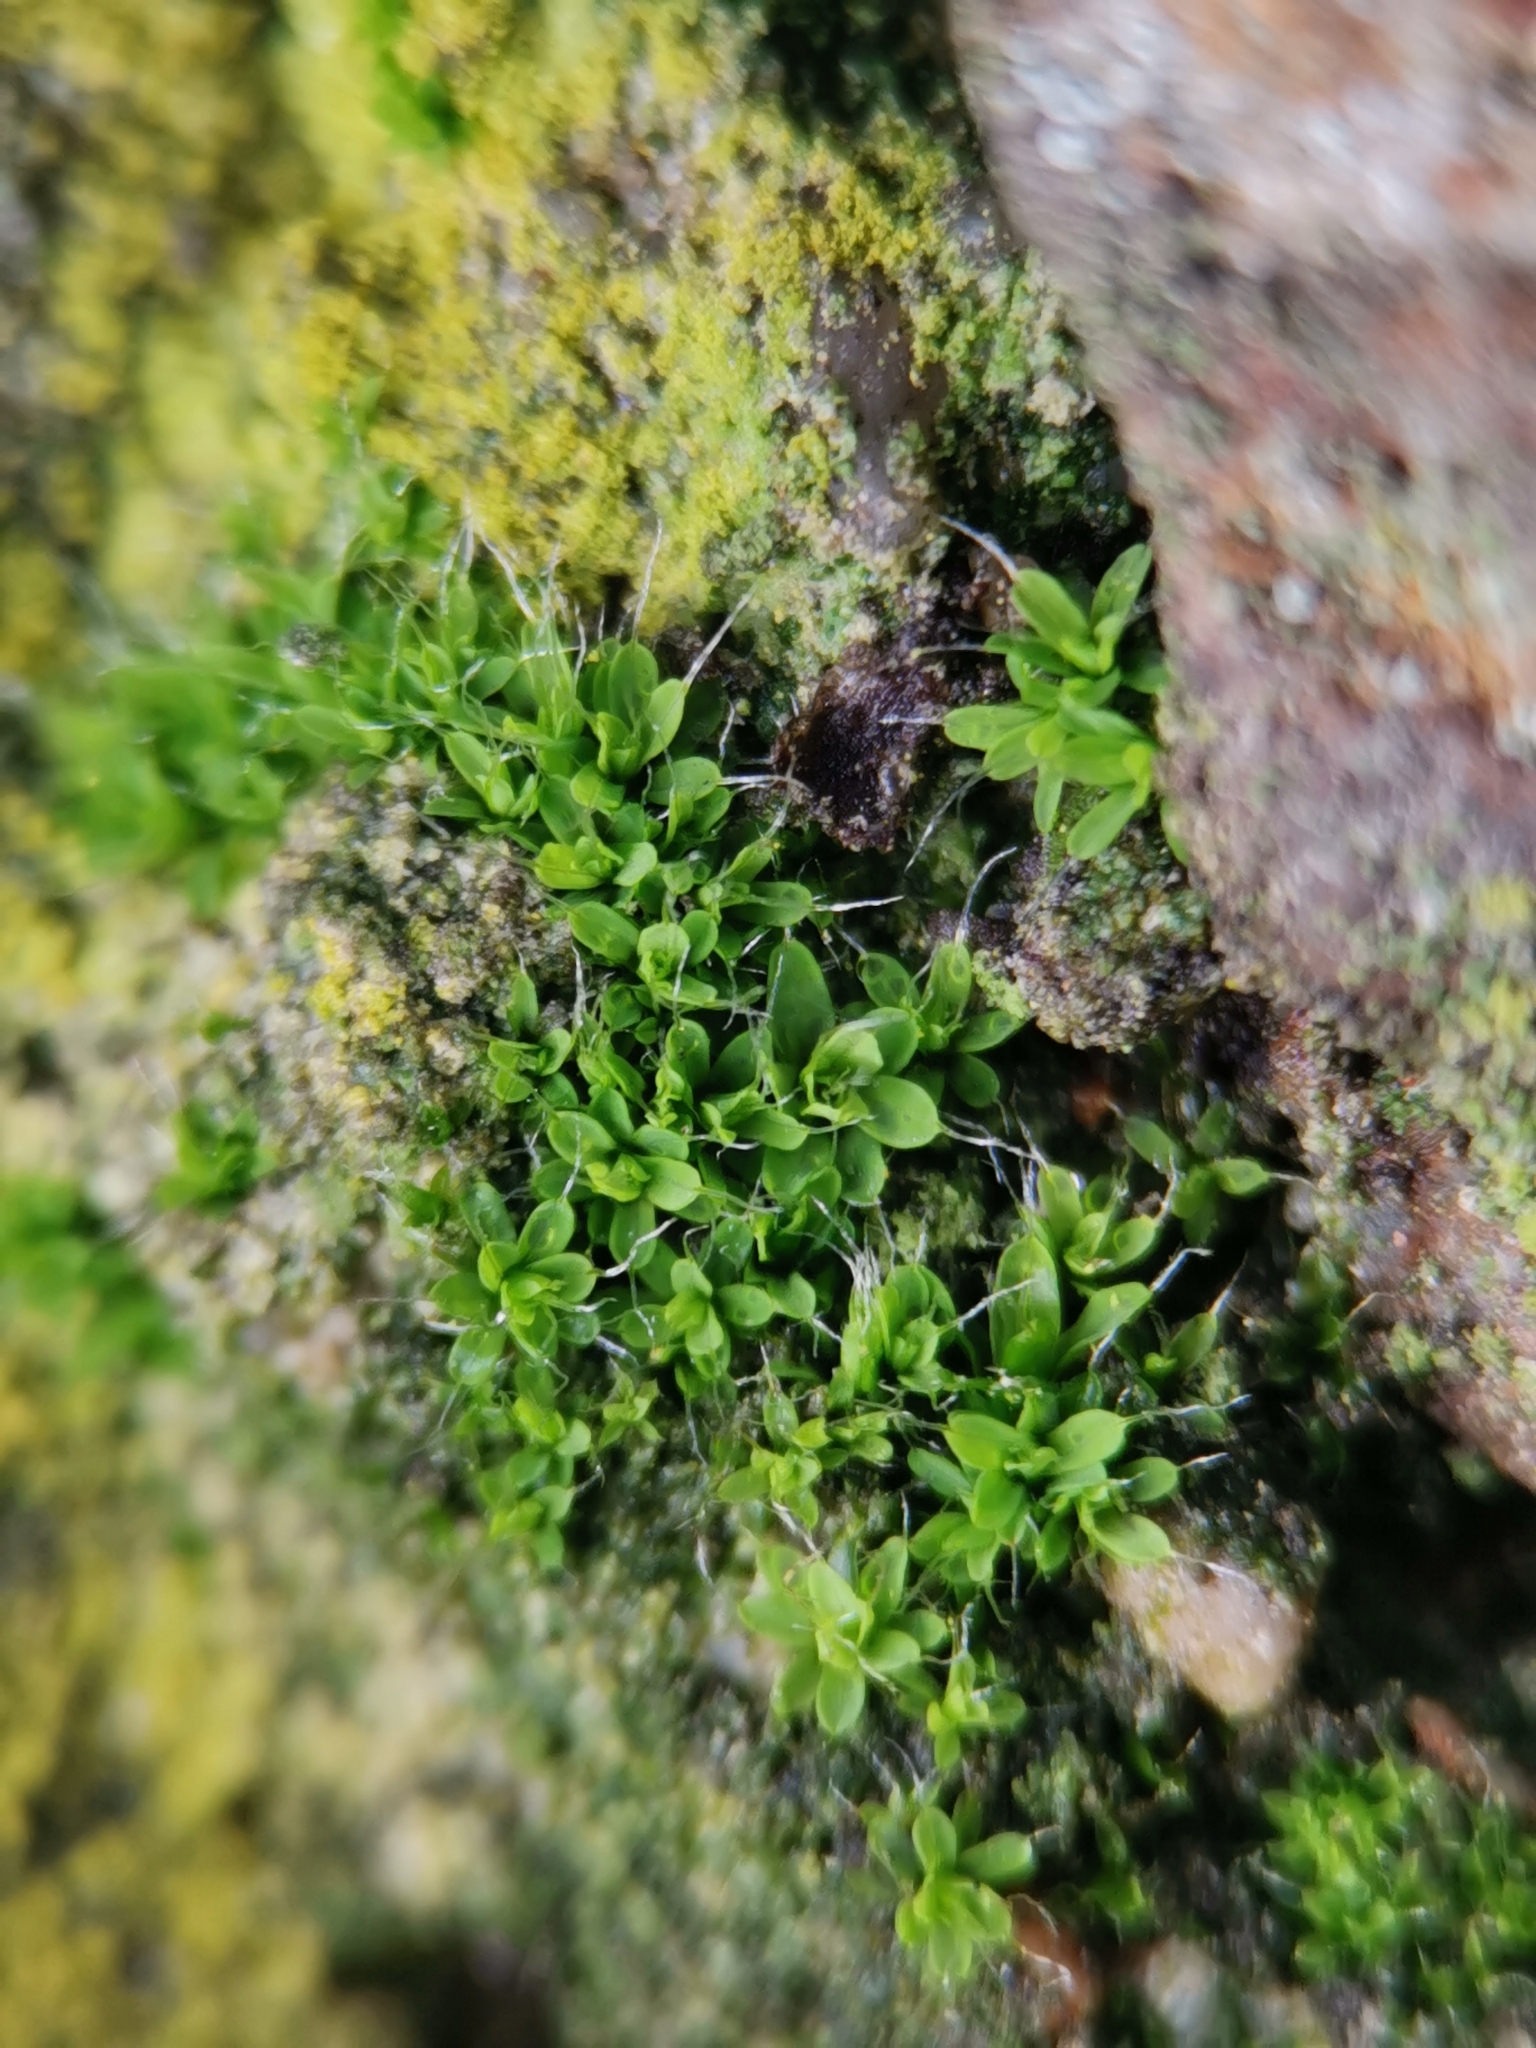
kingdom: Plantae
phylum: Bryophyta
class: Bryopsida
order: Pottiales
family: Pottiaceae
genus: Tortula
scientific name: Tortula muralis
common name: Wall screw-moss
